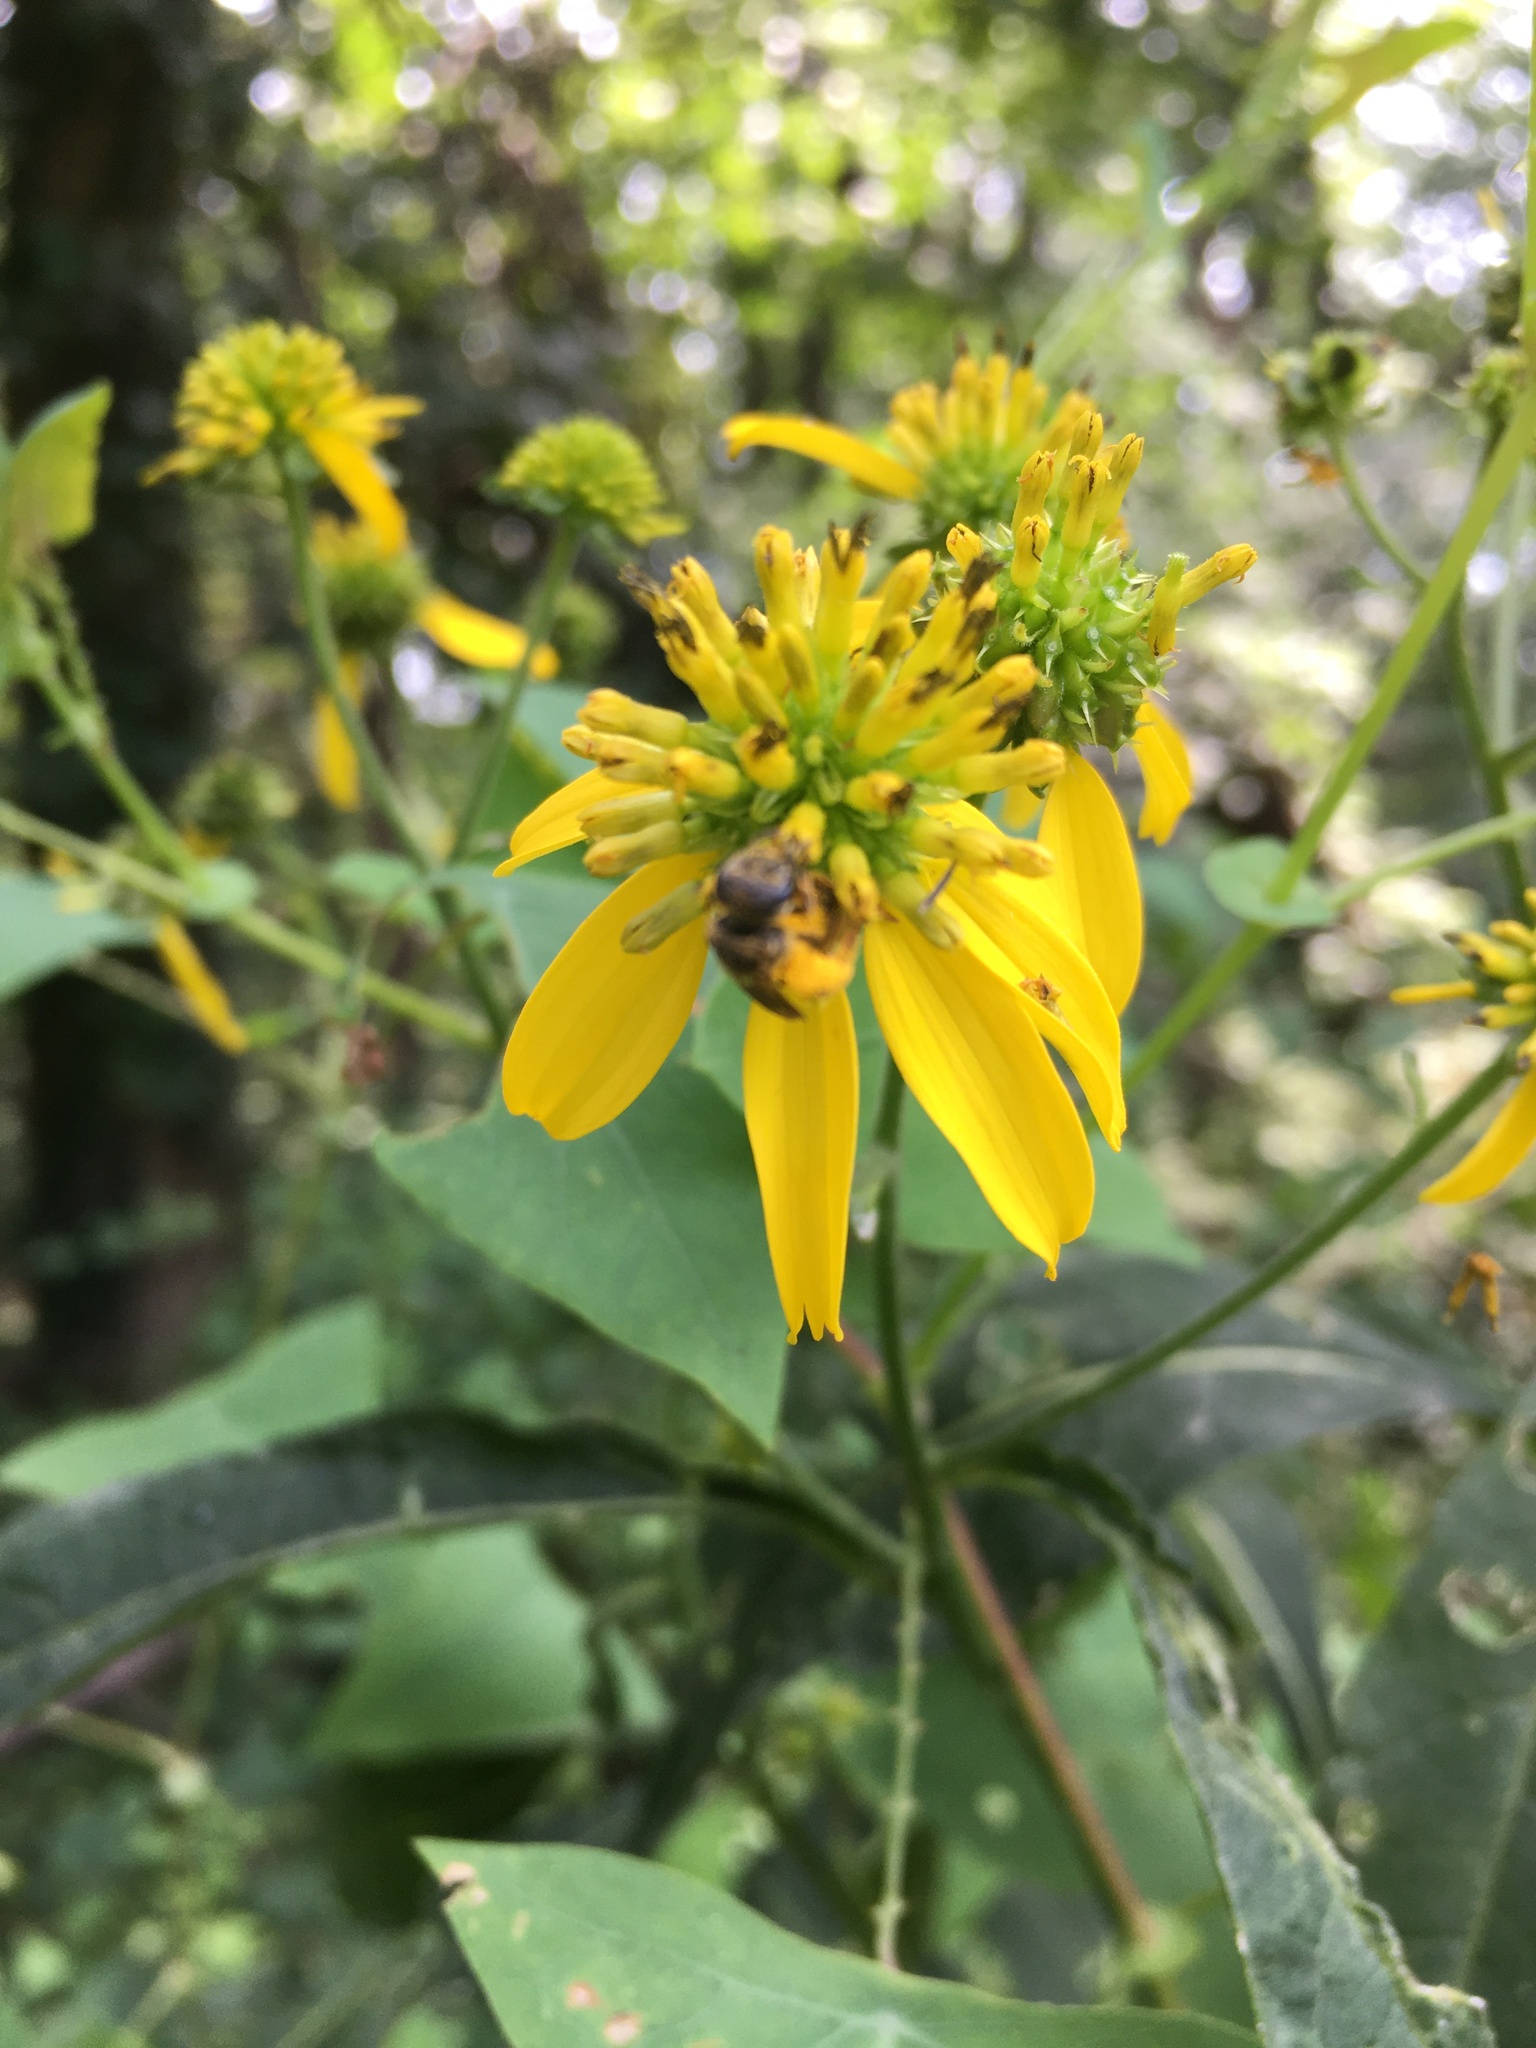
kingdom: Plantae
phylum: Tracheophyta
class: Magnoliopsida
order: Asterales
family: Asteraceae
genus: Verbesina
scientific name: Verbesina alternifolia
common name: Wingstem
